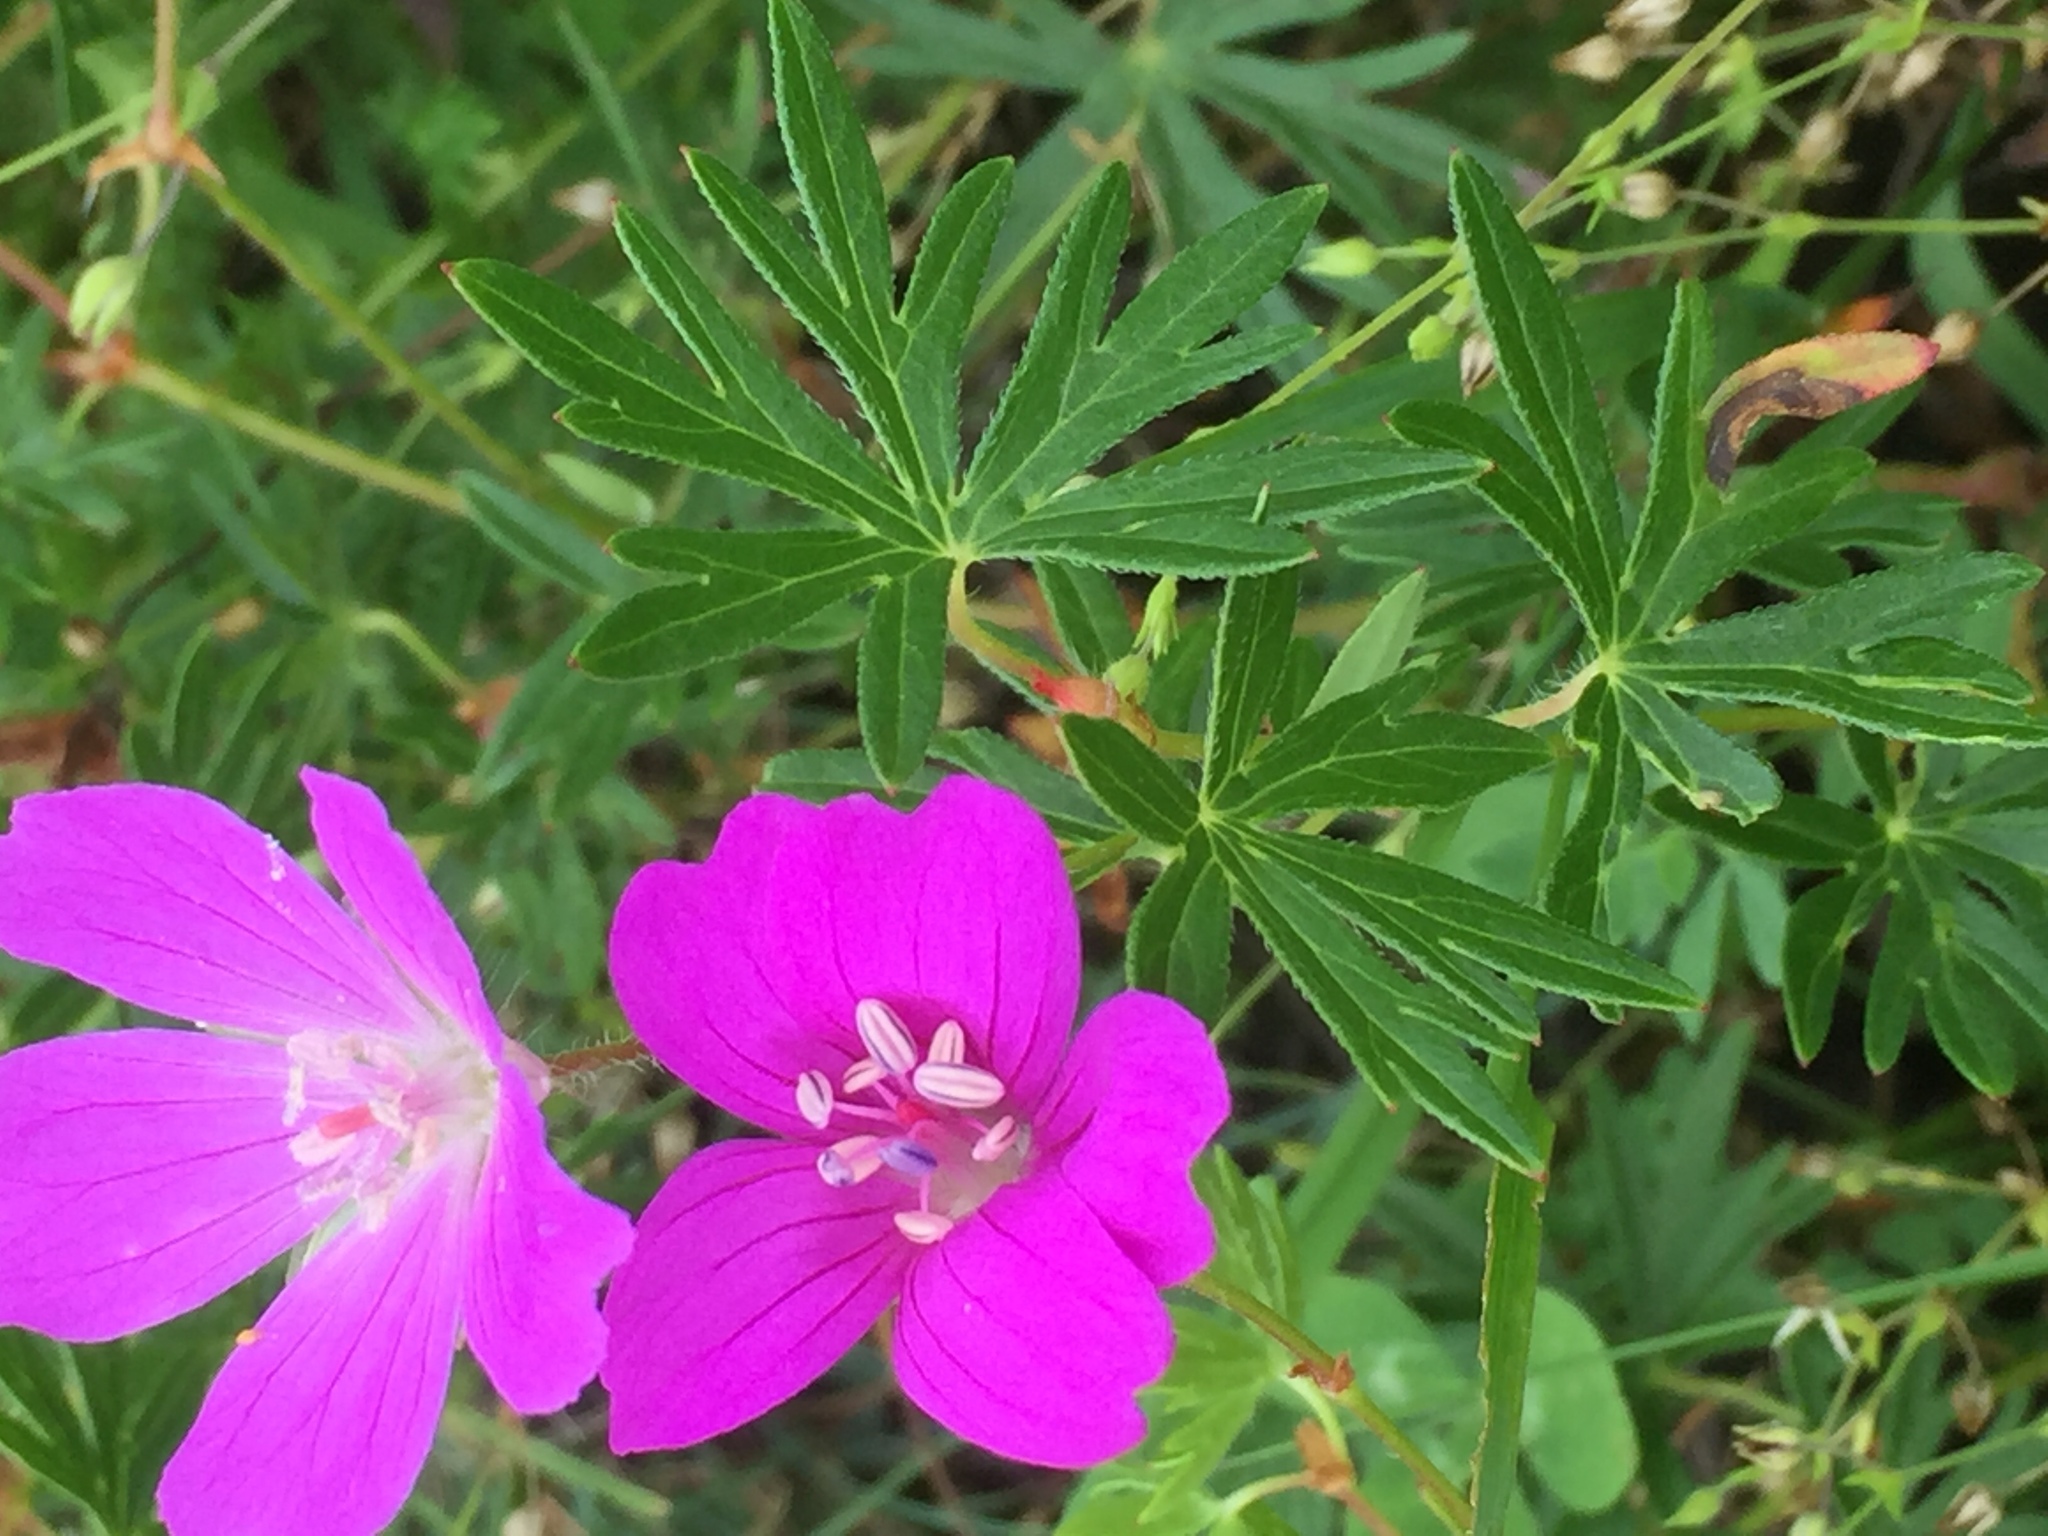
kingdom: Plantae
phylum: Tracheophyta
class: Magnoliopsida
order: Geraniales
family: Geraniaceae
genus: Geranium
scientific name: Geranium sanguineum
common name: Bloody crane's-bill
